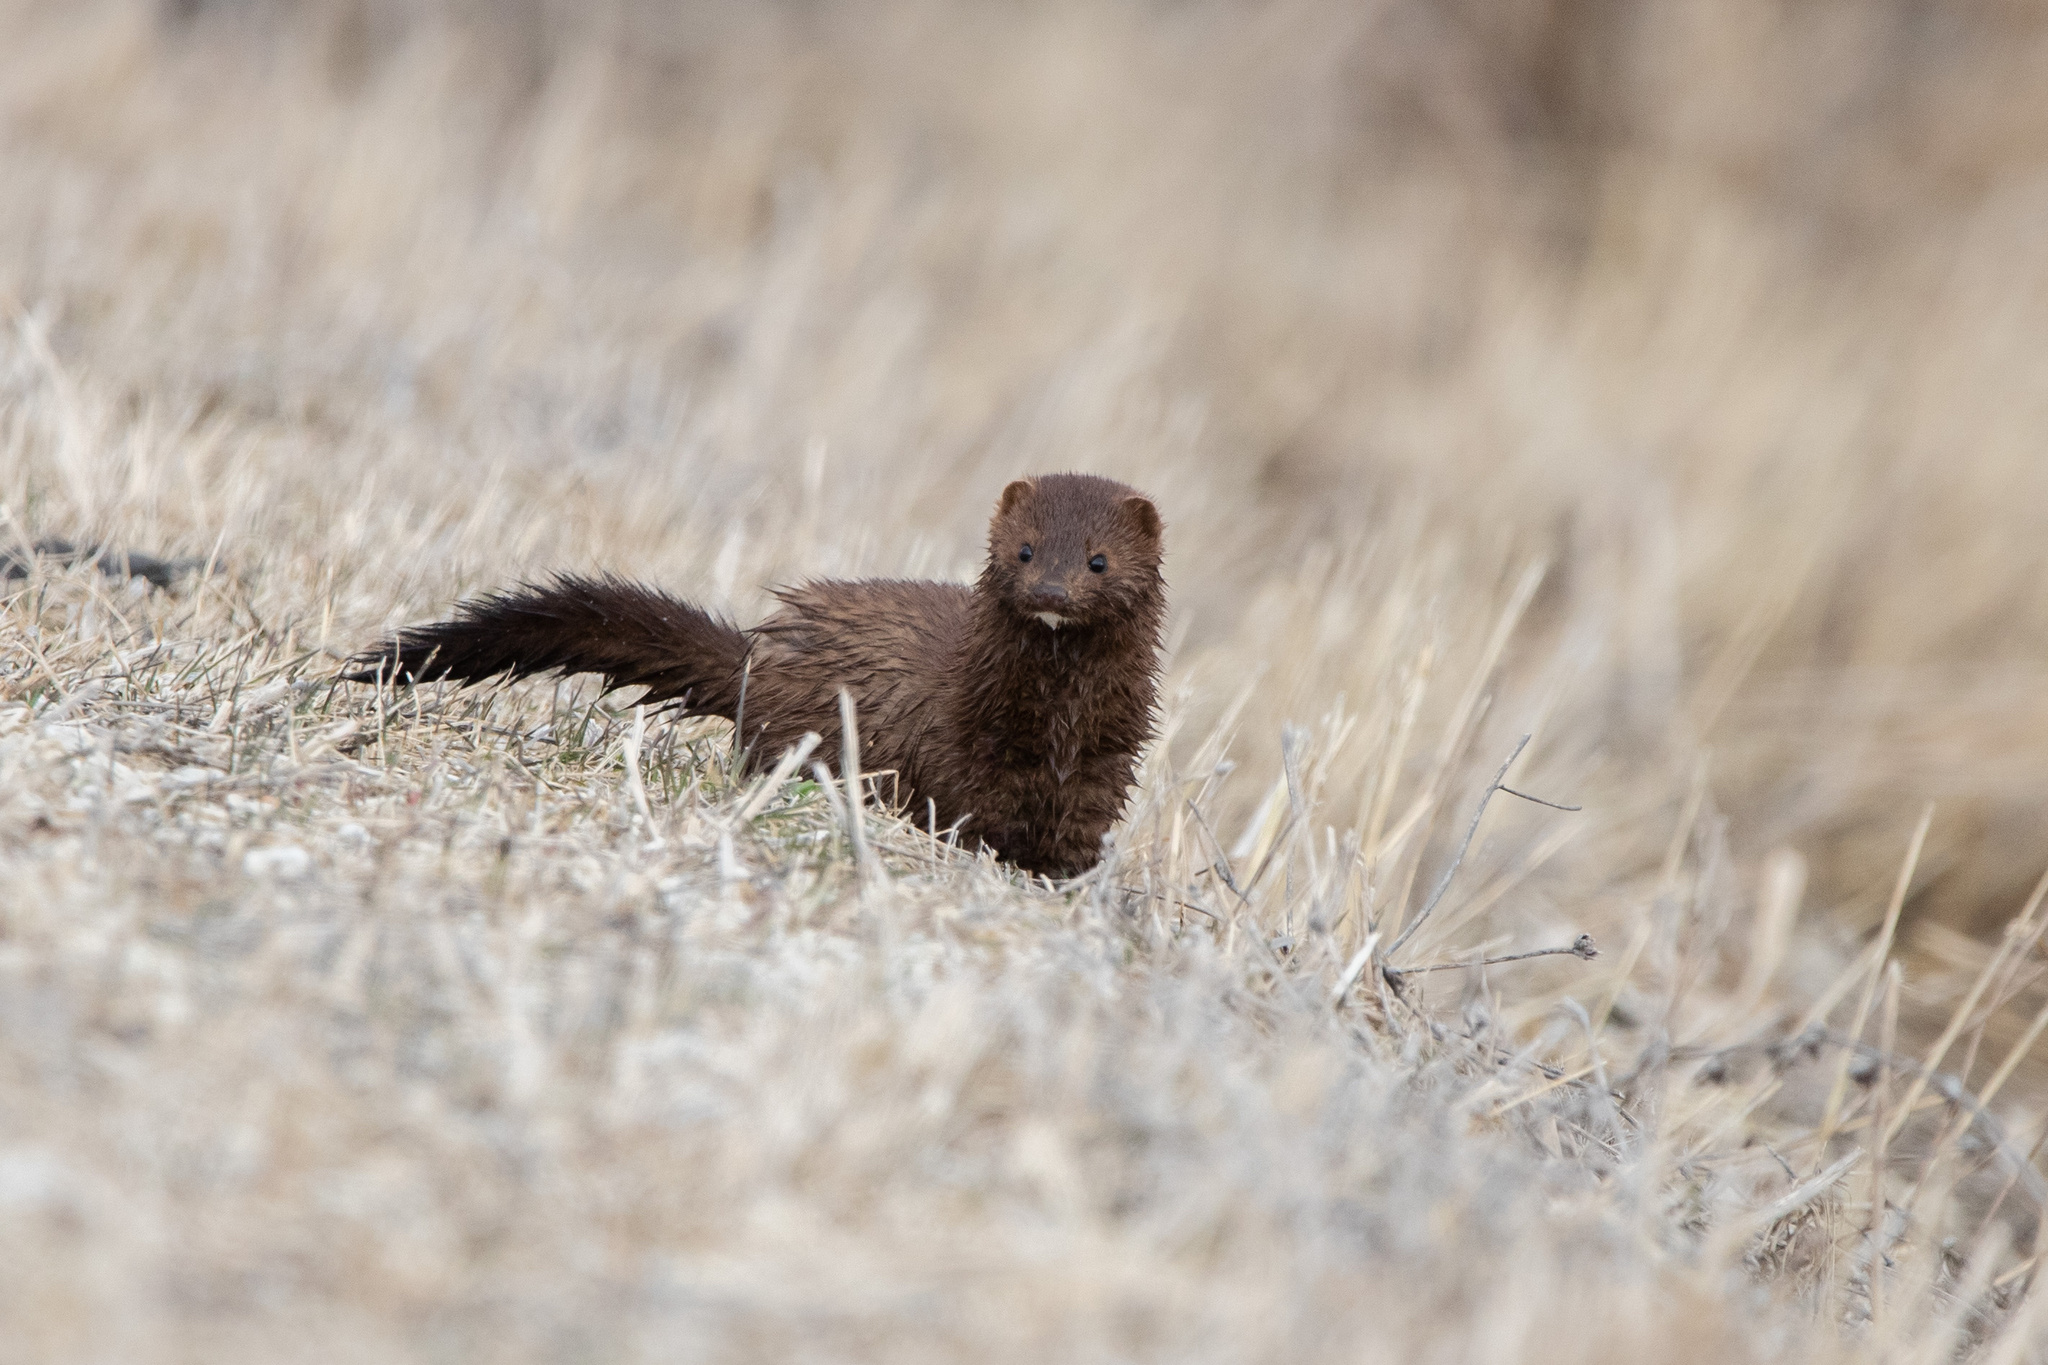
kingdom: Animalia
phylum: Chordata
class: Mammalia
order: Carnivora
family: Mustelidae
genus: Mustela
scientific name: Mustela
